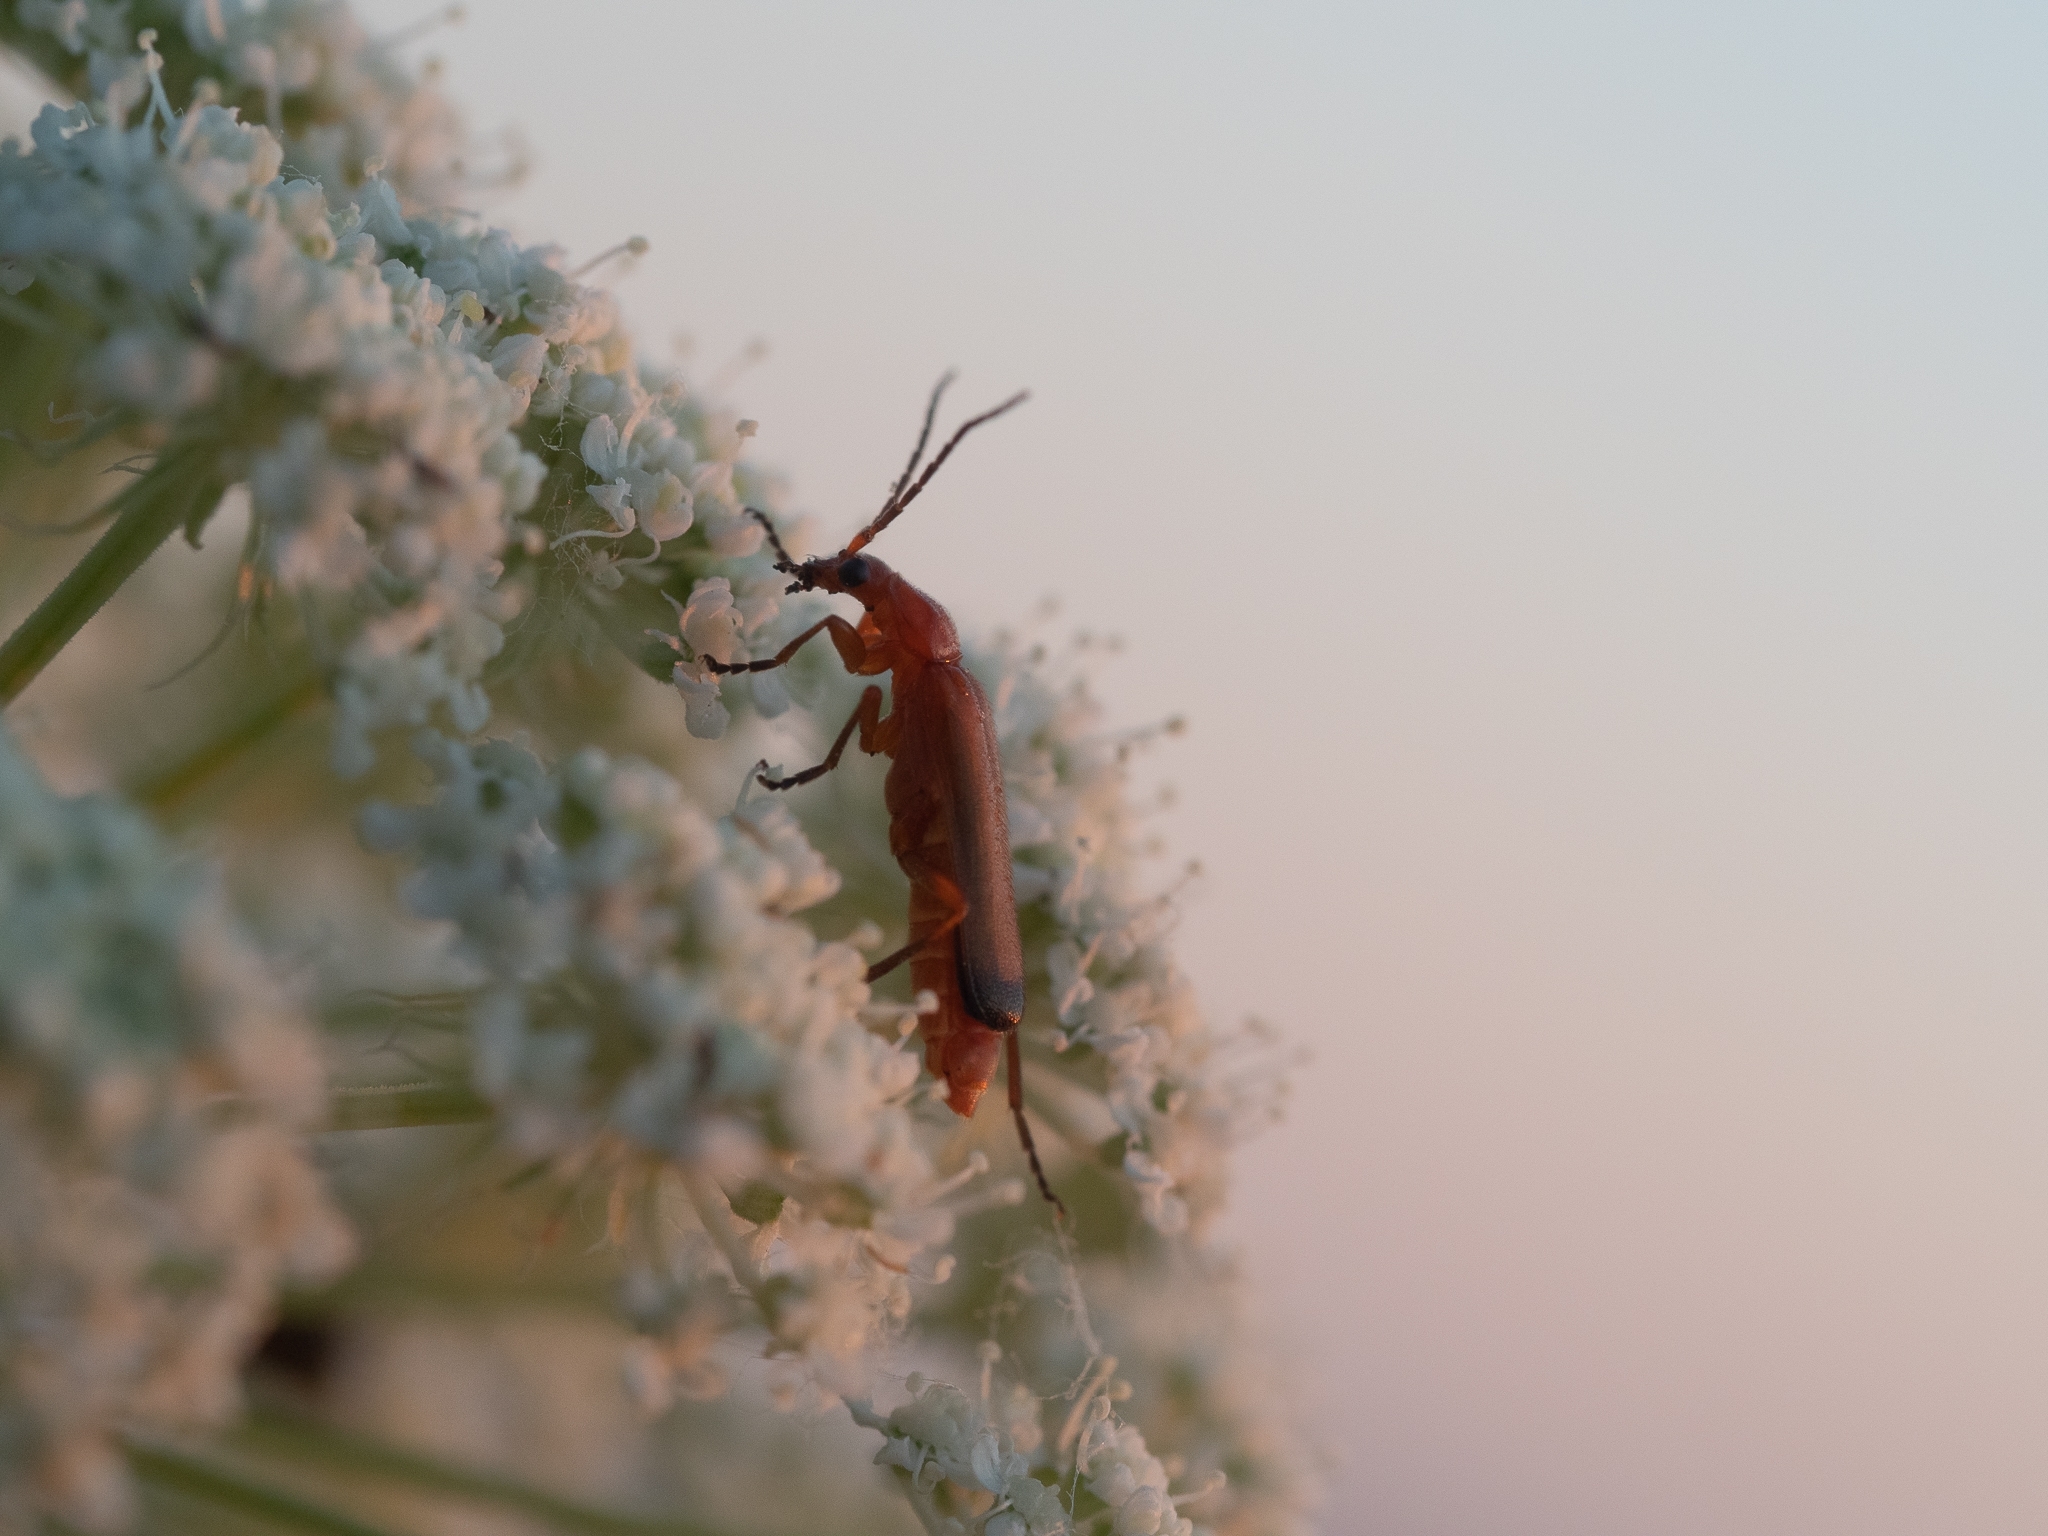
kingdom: Animalia
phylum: Arthropoda
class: Insecta
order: Coleoptera
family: Cantharidae
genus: Rhagonycha
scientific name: Rhagonycha fulva
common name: Common red soldier beetle
